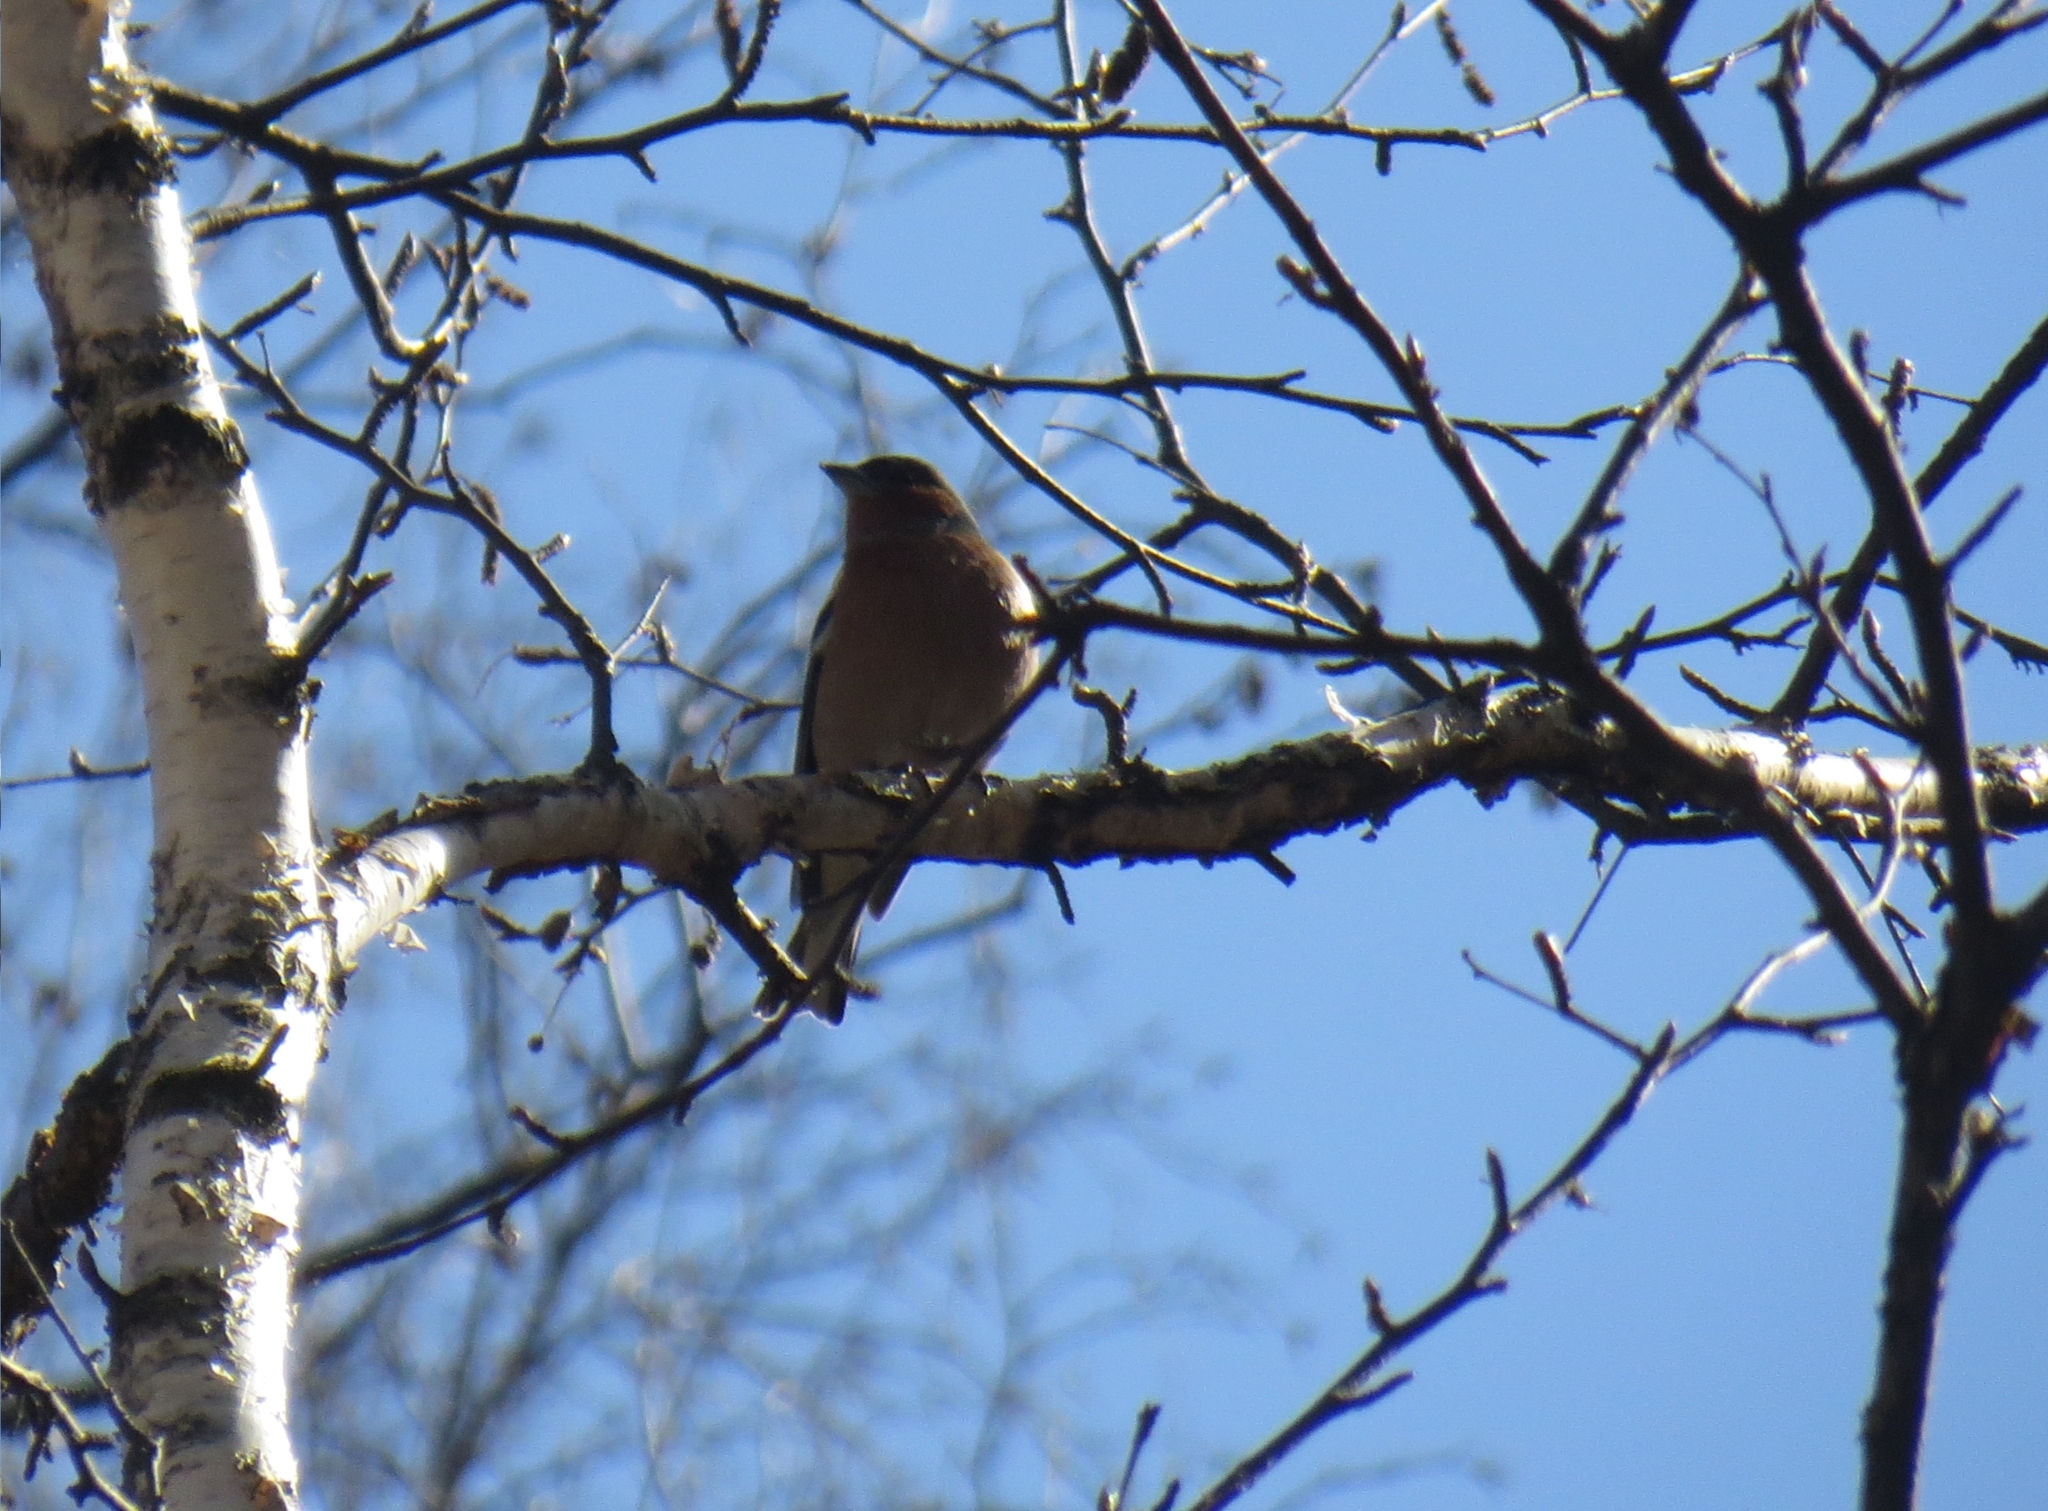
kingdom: Animalia
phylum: Chordata
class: Aves
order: Passeriformes
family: Fringillidae
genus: Fringilla
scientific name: Fringilla coelebs
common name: Common chaffinch
